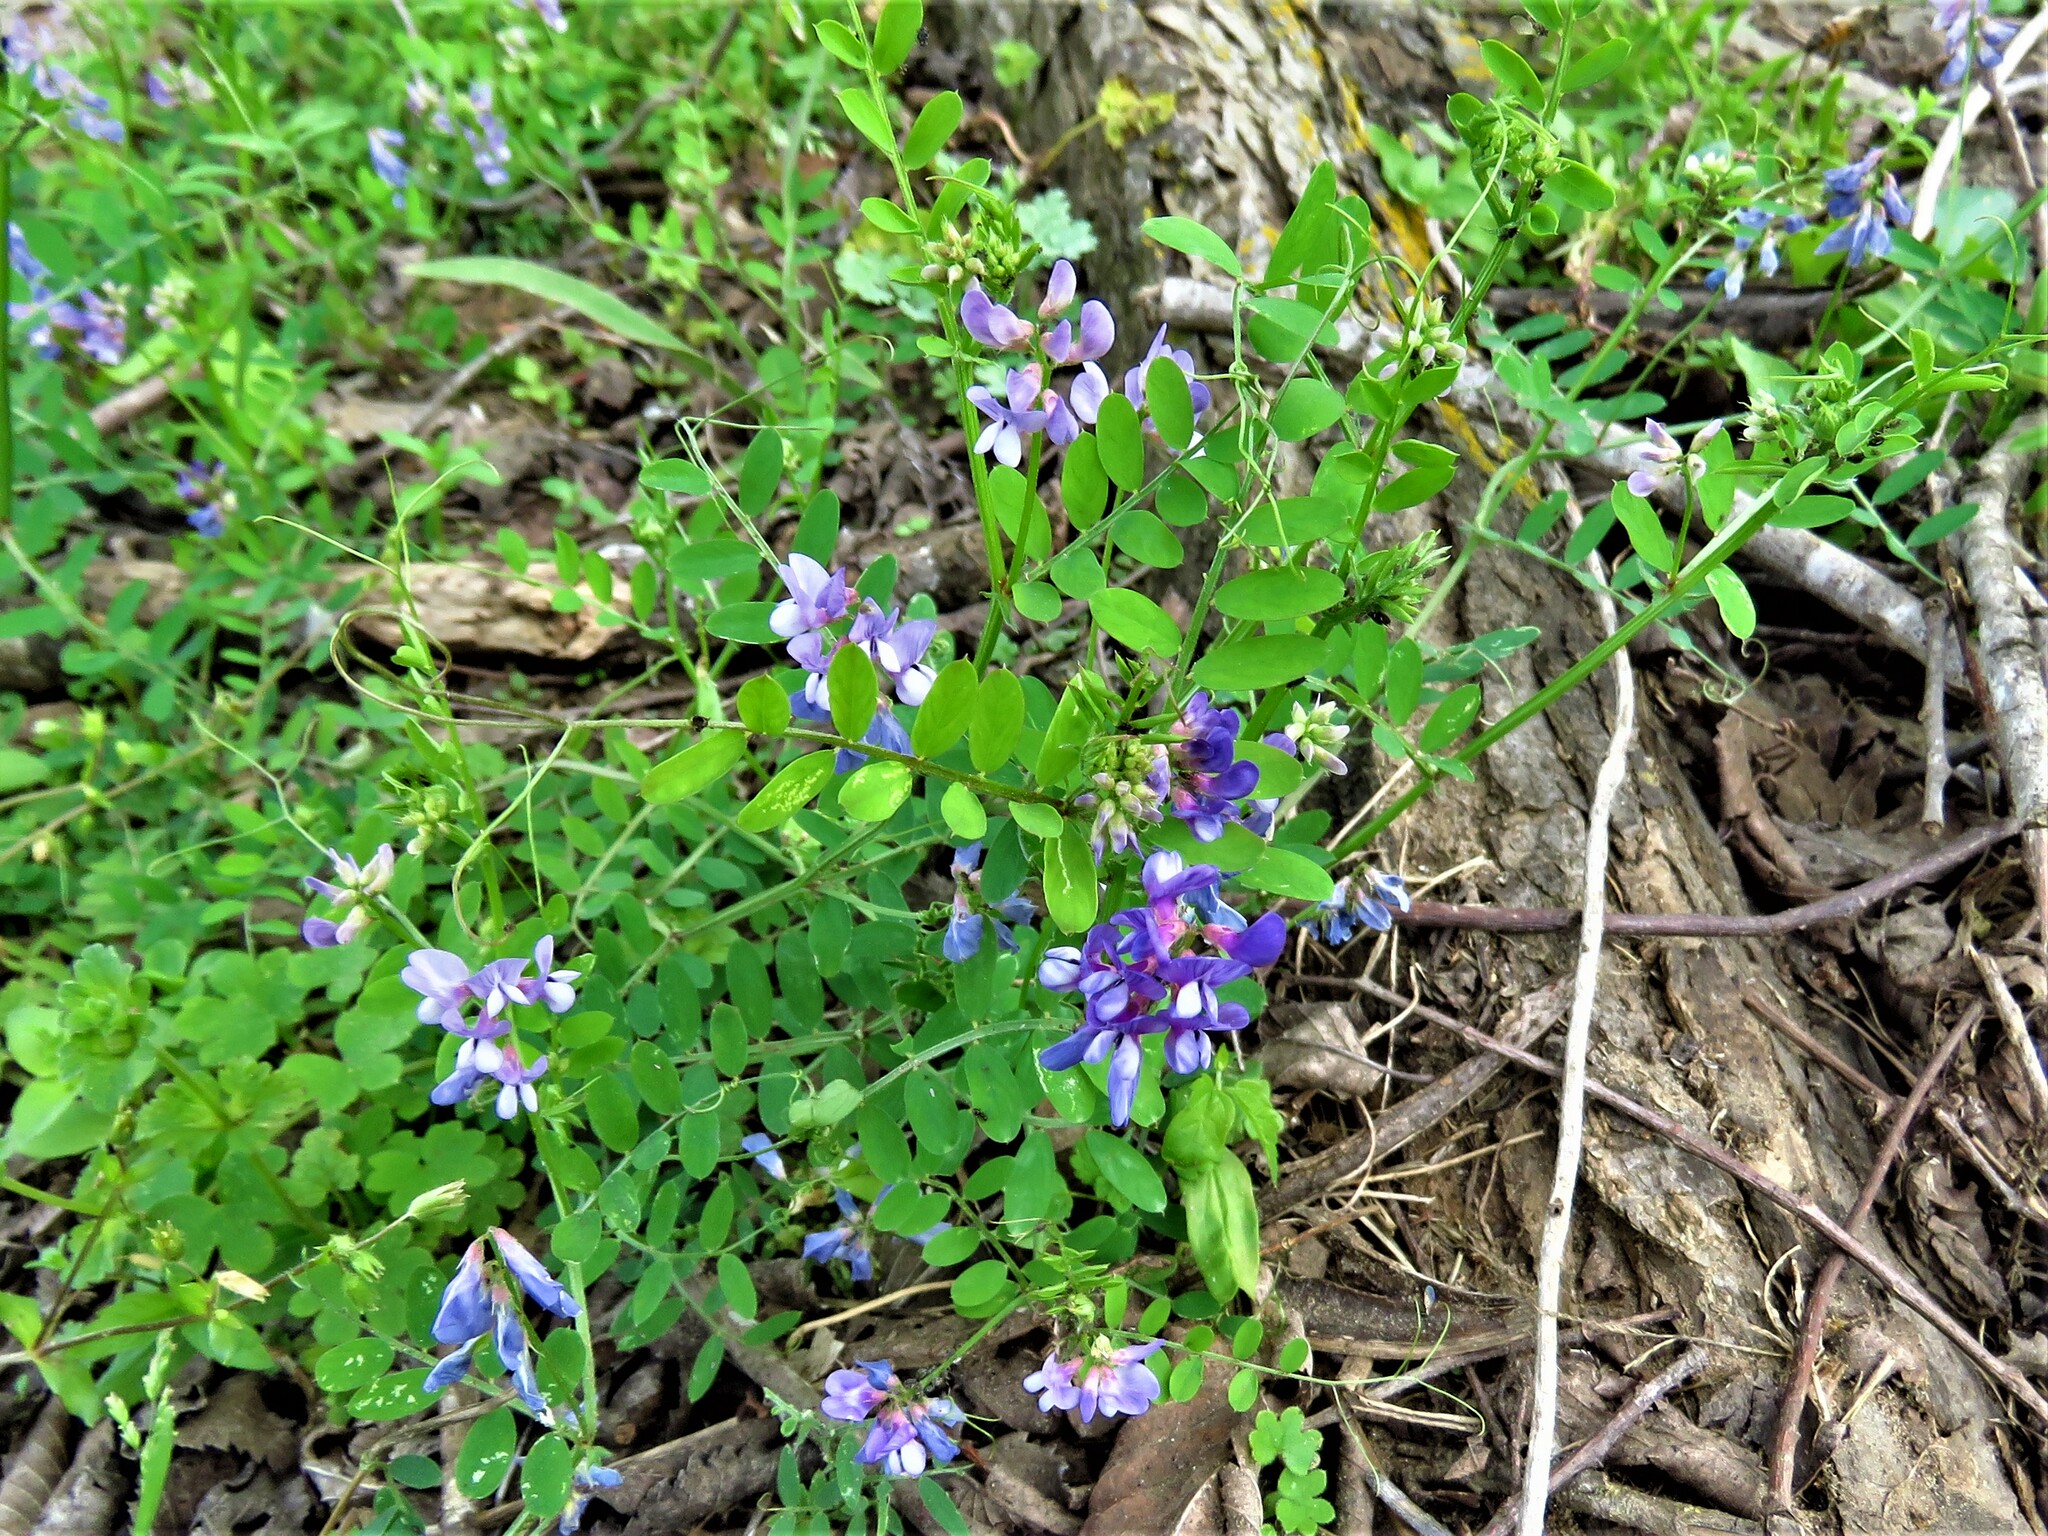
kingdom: Plantae
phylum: Tracheophyta
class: Magnoliopsida
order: Fabales
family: Fabaceae
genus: Vicia
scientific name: Vicia ludoviciana
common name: Louisiana vetch
